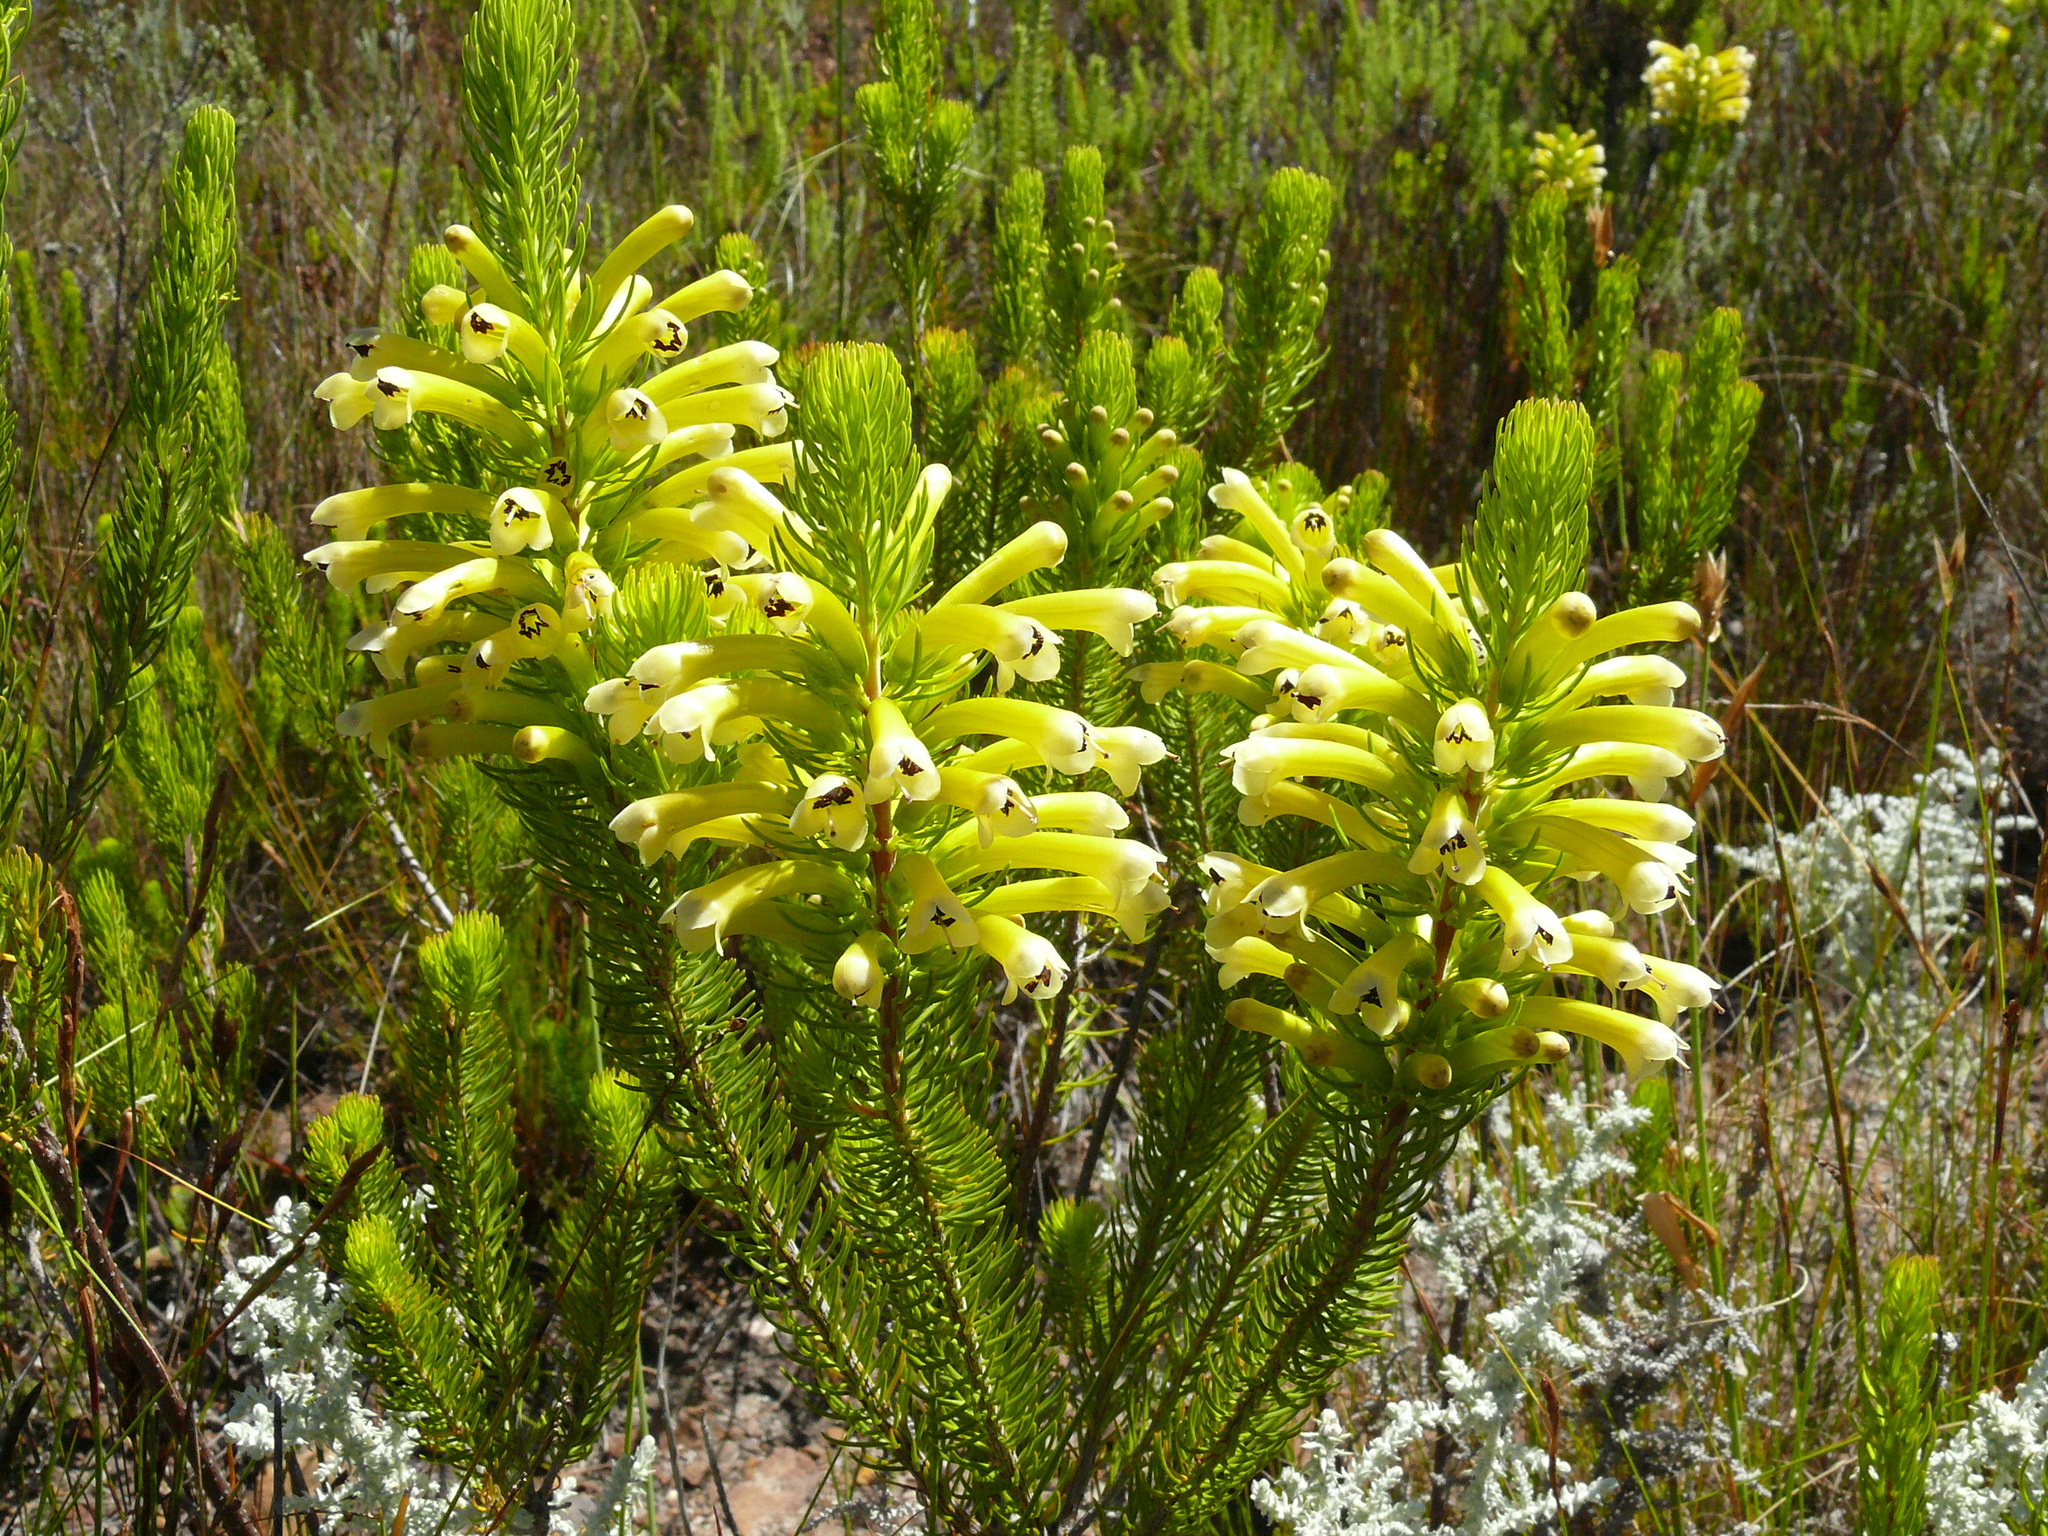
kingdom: Plantae
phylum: Tracheophyta
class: Magnoliopsida
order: Ericales
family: Ericaceae
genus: Erica
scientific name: Erica pinea
